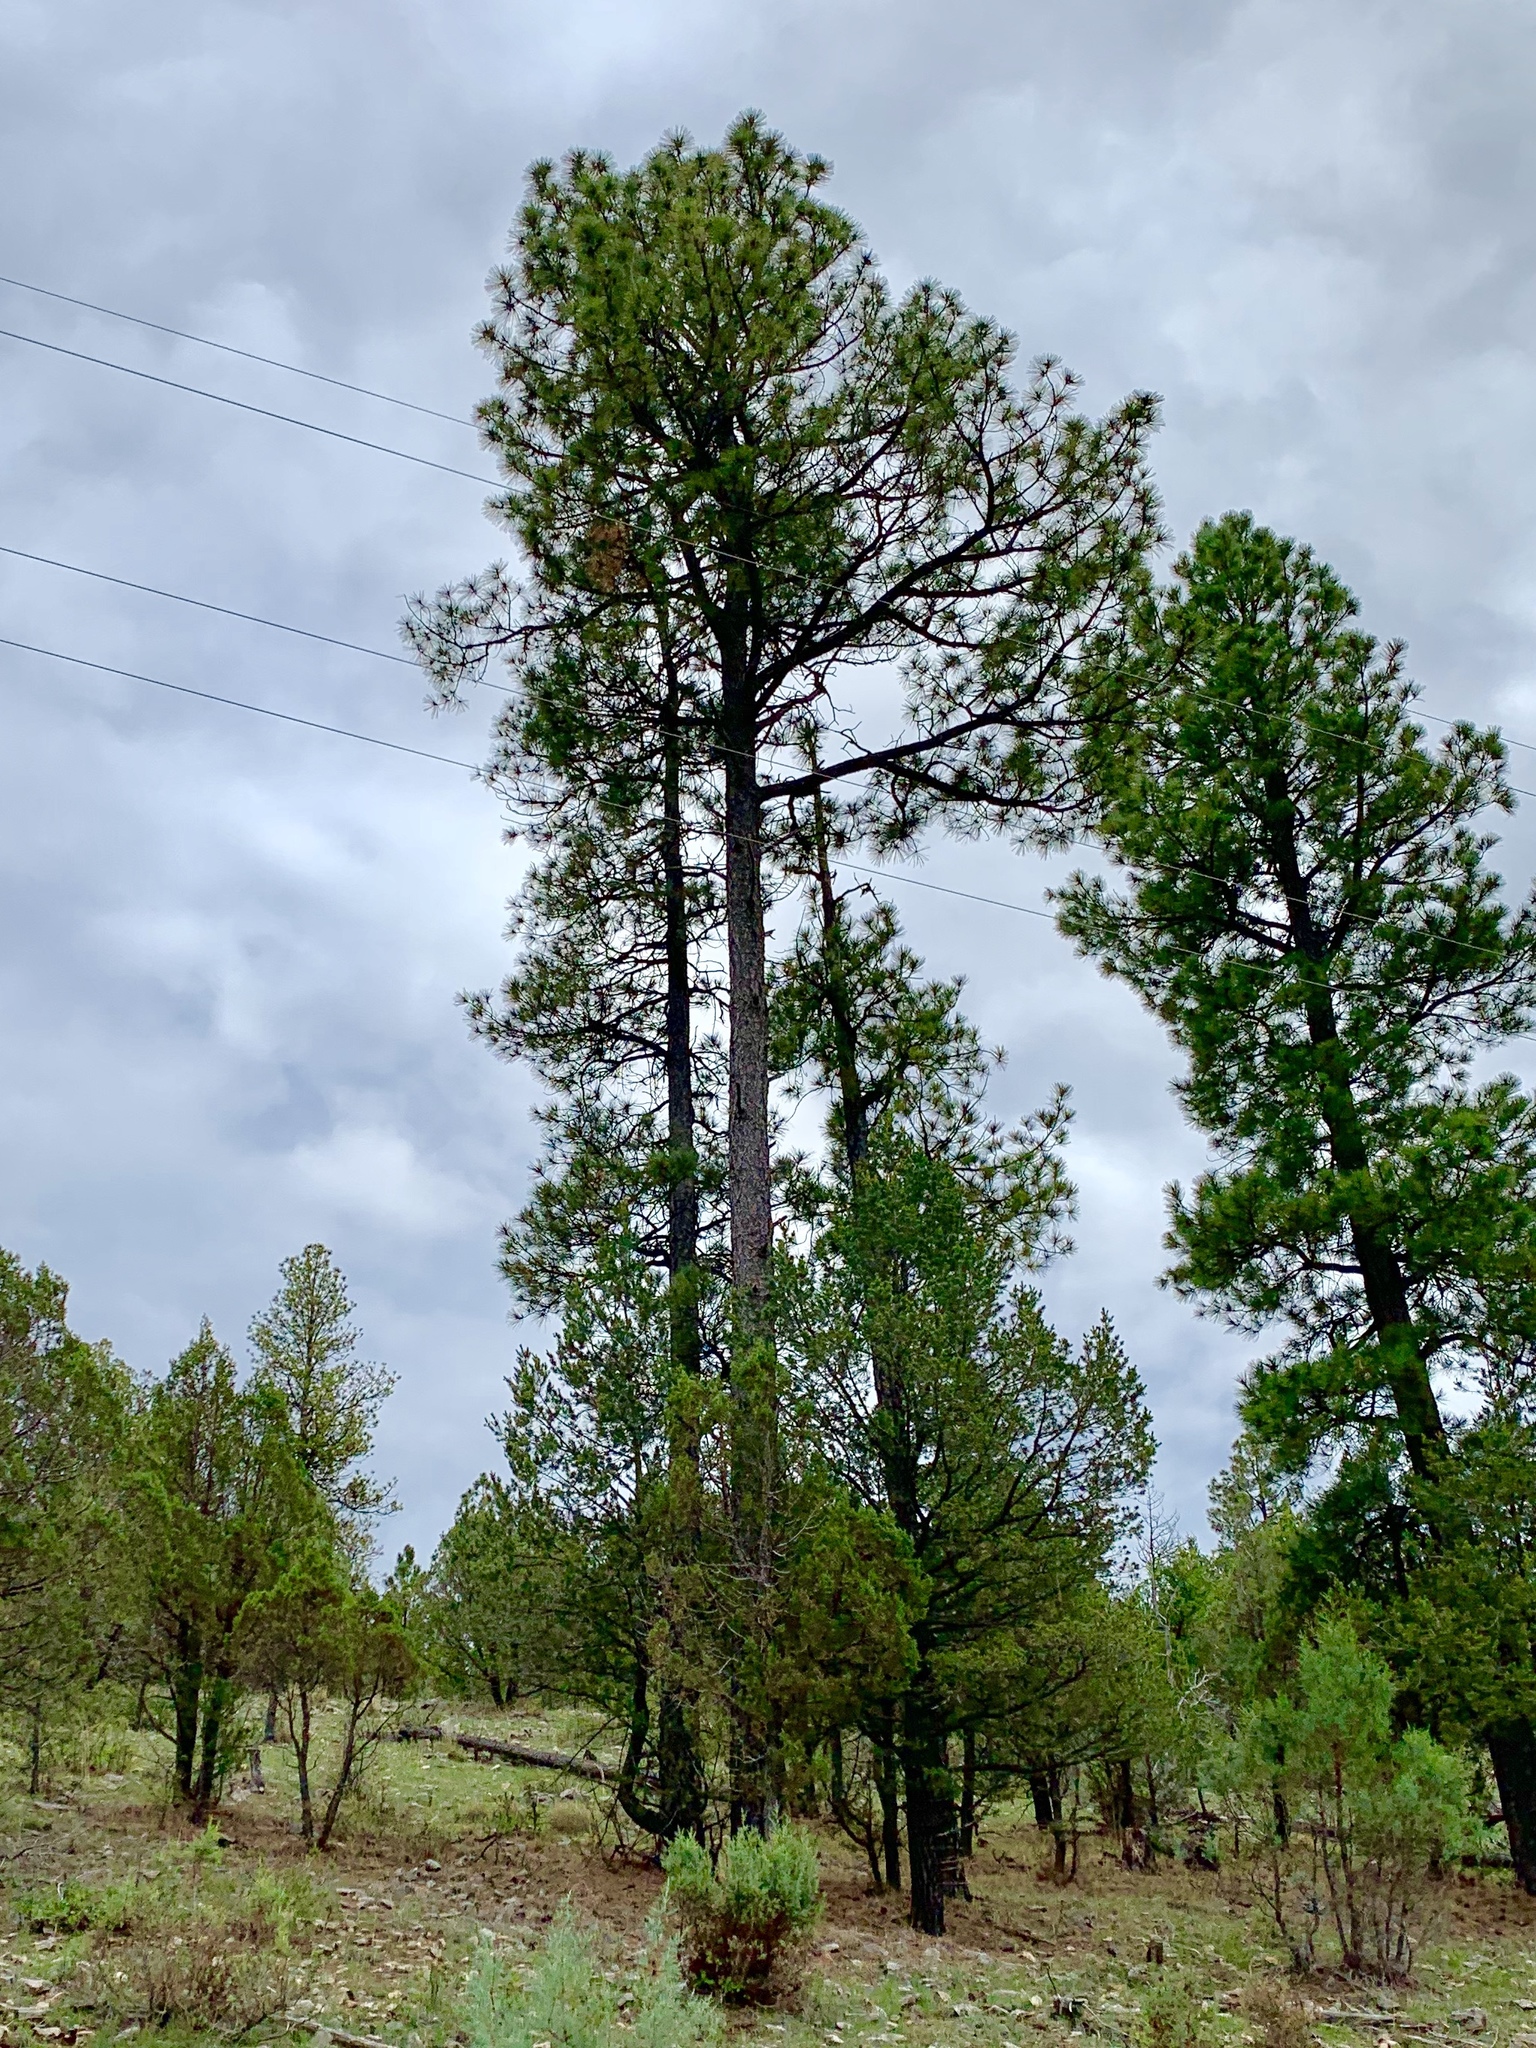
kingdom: Plantae
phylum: Tracheophyta
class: Pinopsida
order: Pinales
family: Pinaceae
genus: Pinus
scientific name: Pinus ponderosa
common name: Western yellow-pine
